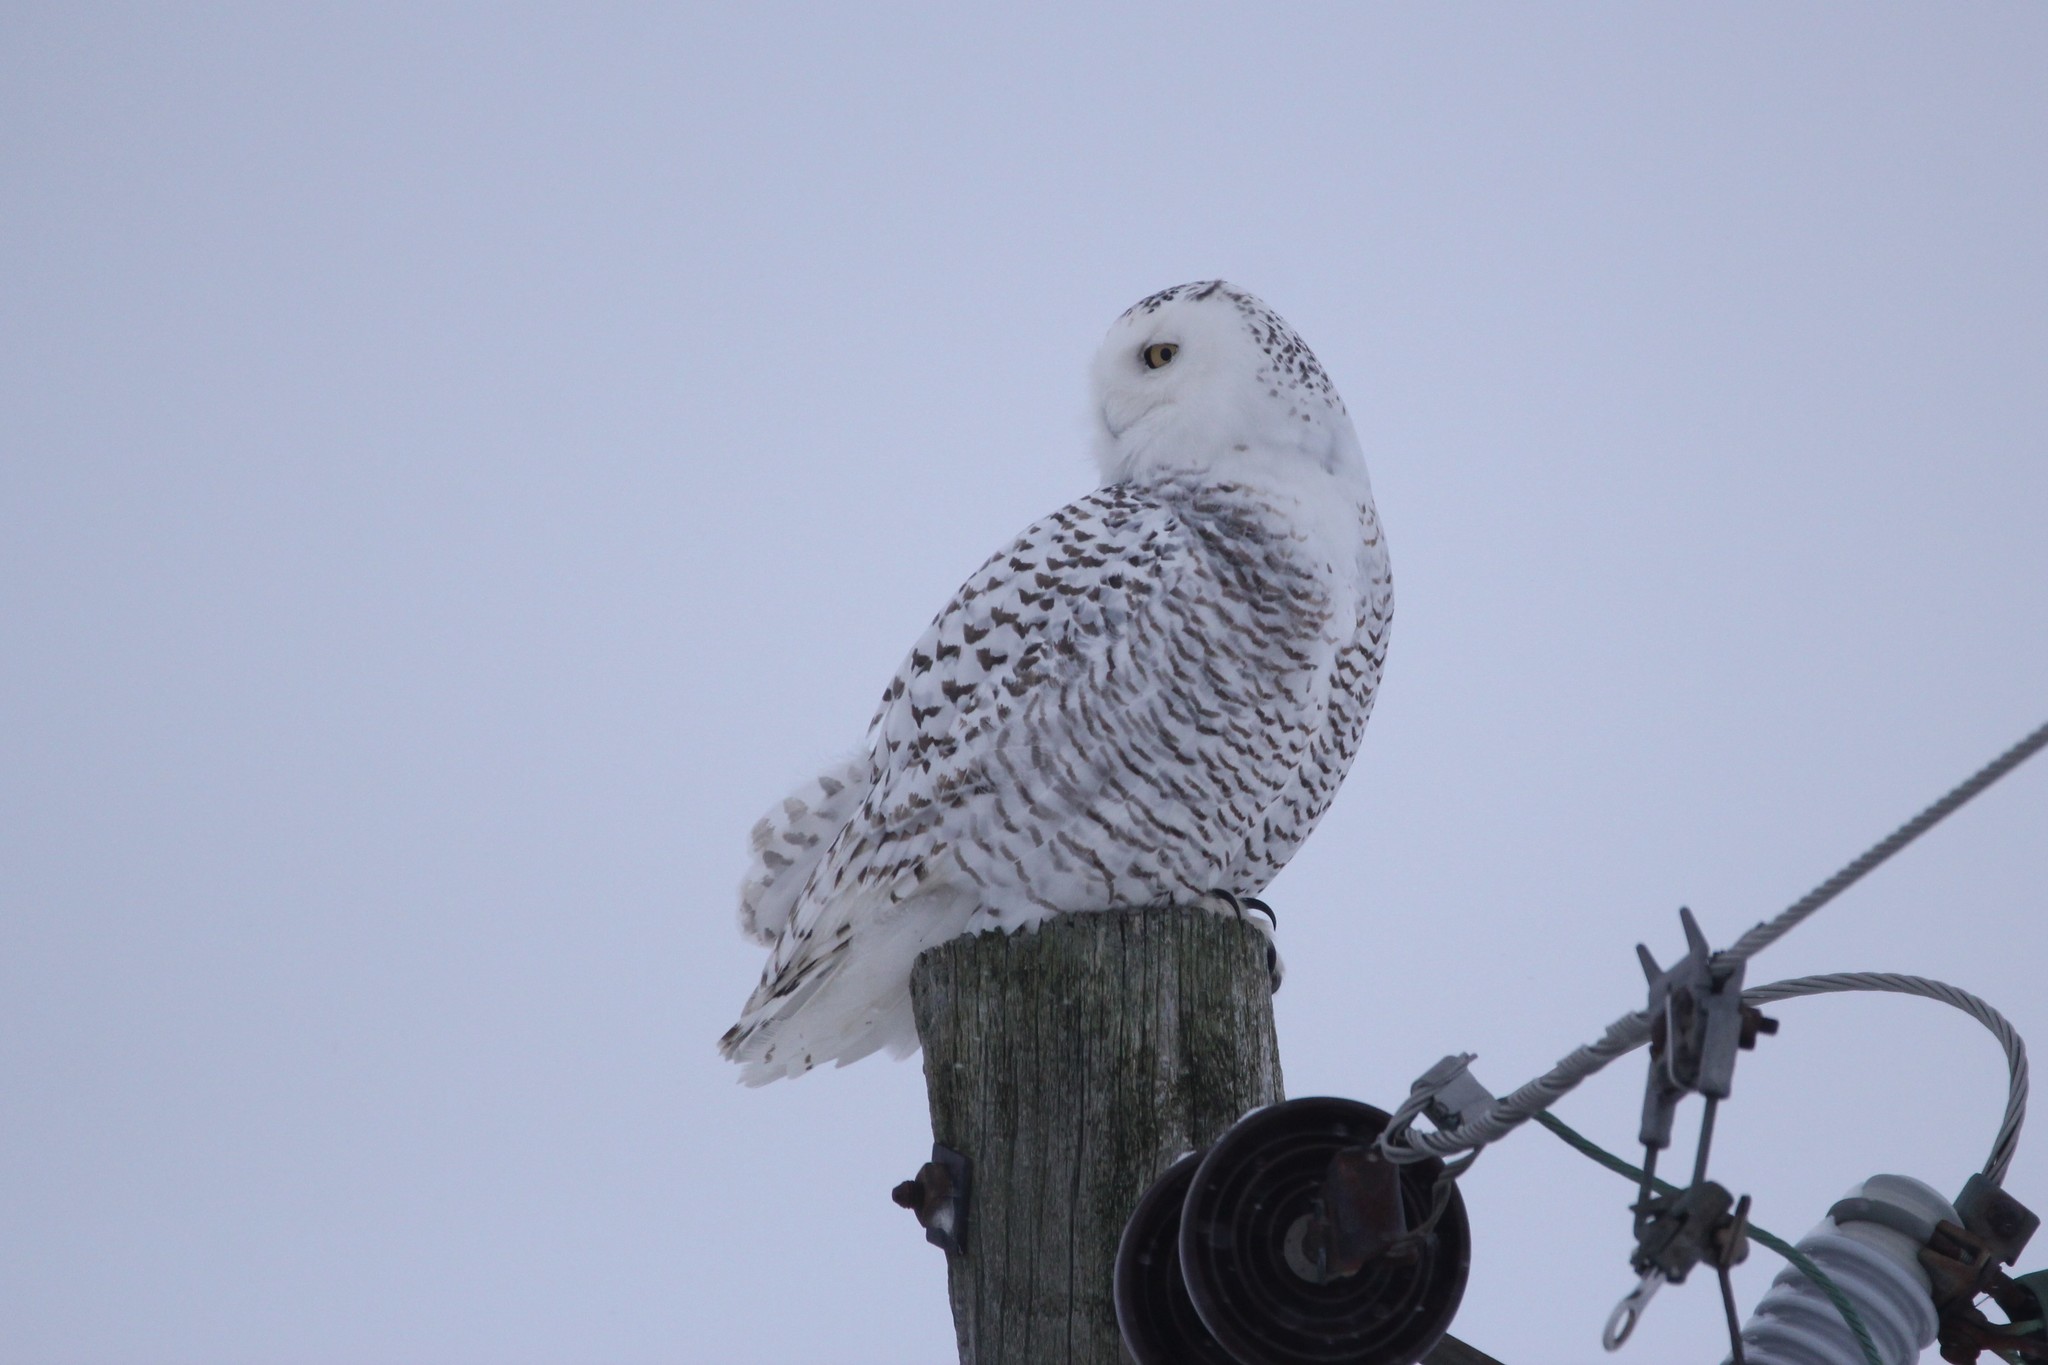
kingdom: Animalia
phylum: Chordata
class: Aves
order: Strigiformes
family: Strigidae
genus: Bubo
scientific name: Bubo scandiacus
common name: Snowy owl
